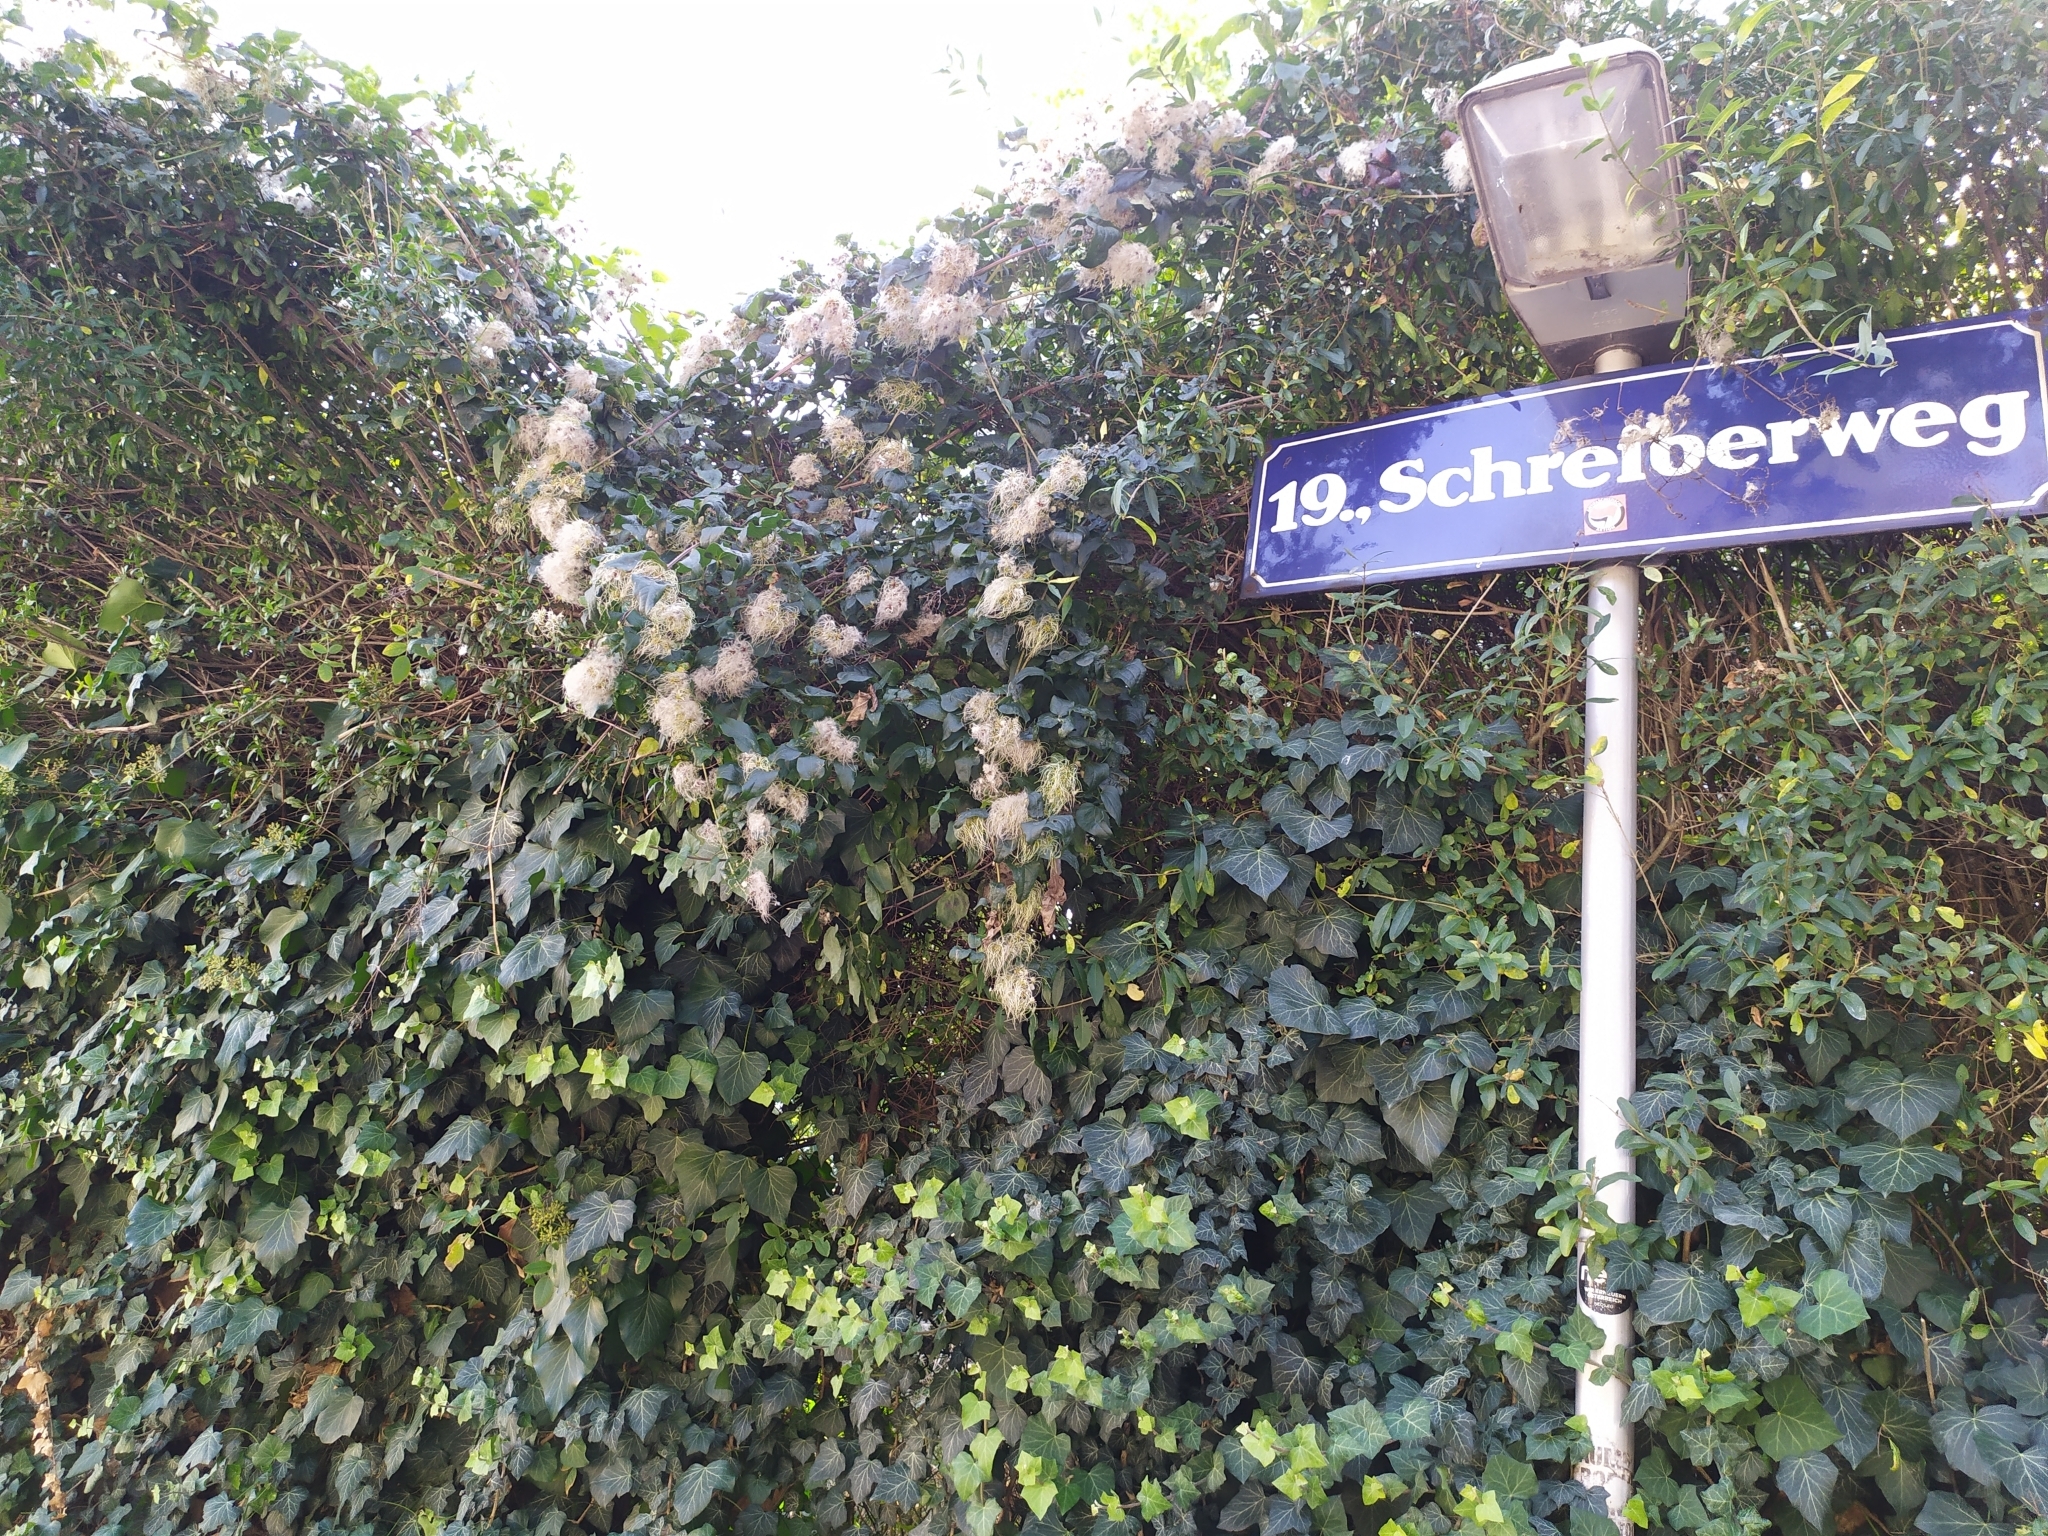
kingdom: Animalia
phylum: Arthropoda
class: Insecta
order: Orthoptera
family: Tettigoniidae
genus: Eupholidoptera
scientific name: Eupholidoptera schmidti
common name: Schmidt's marbled bush-cricket
